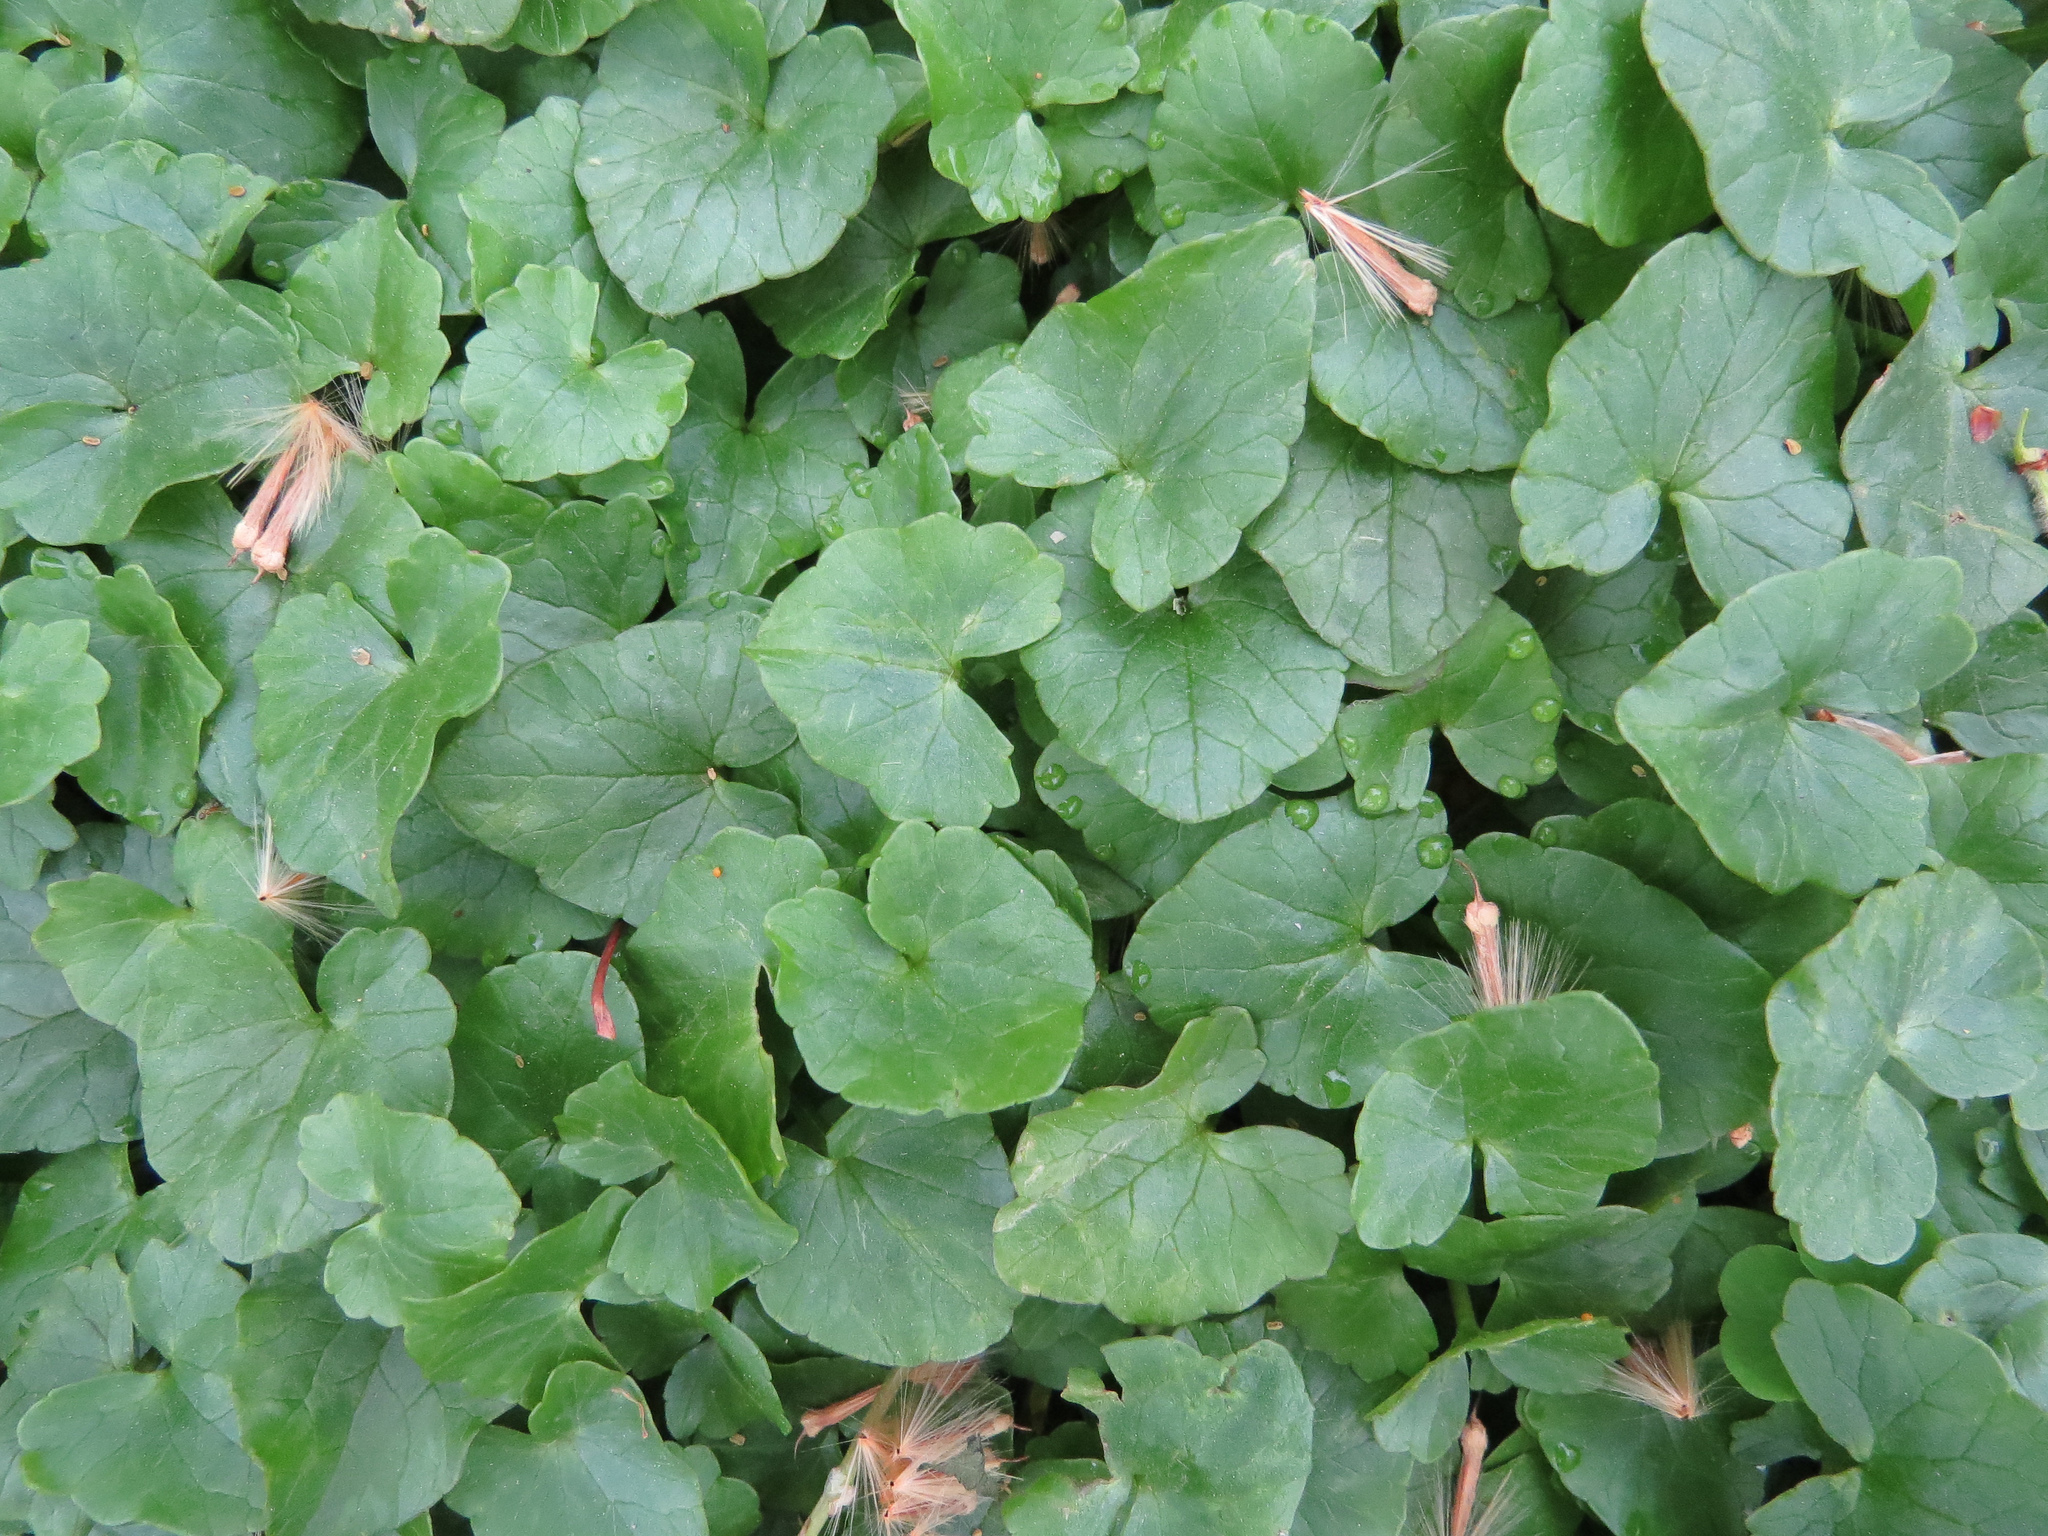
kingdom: Plantae
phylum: Tracheophyta
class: Magnoliopsida
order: Ranunculales
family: Ranunculaceae
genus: Ficaria
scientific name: Ficaria verna
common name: Lesser celandine
